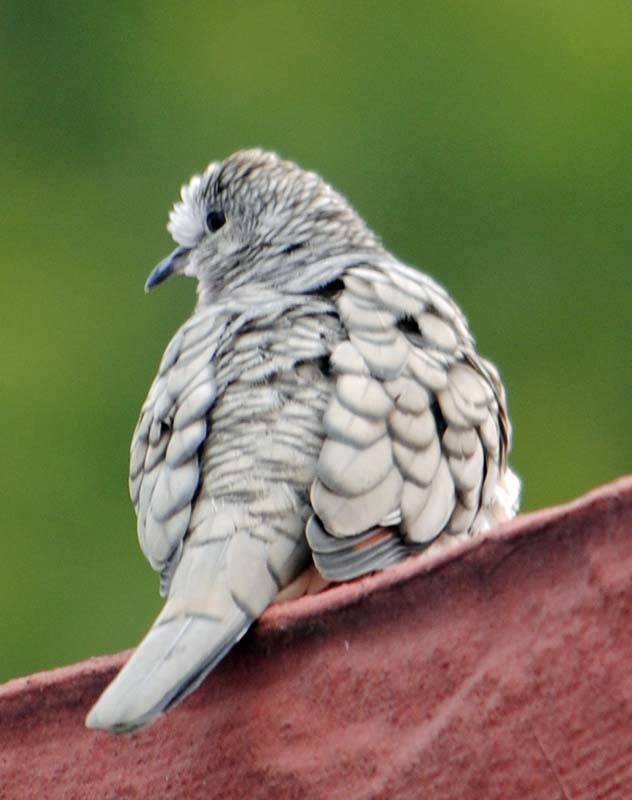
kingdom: Animalia
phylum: Chordata
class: Aves
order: Columbiformes
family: Columbidae
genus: Columbina
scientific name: Columbina inca
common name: Inca dove
